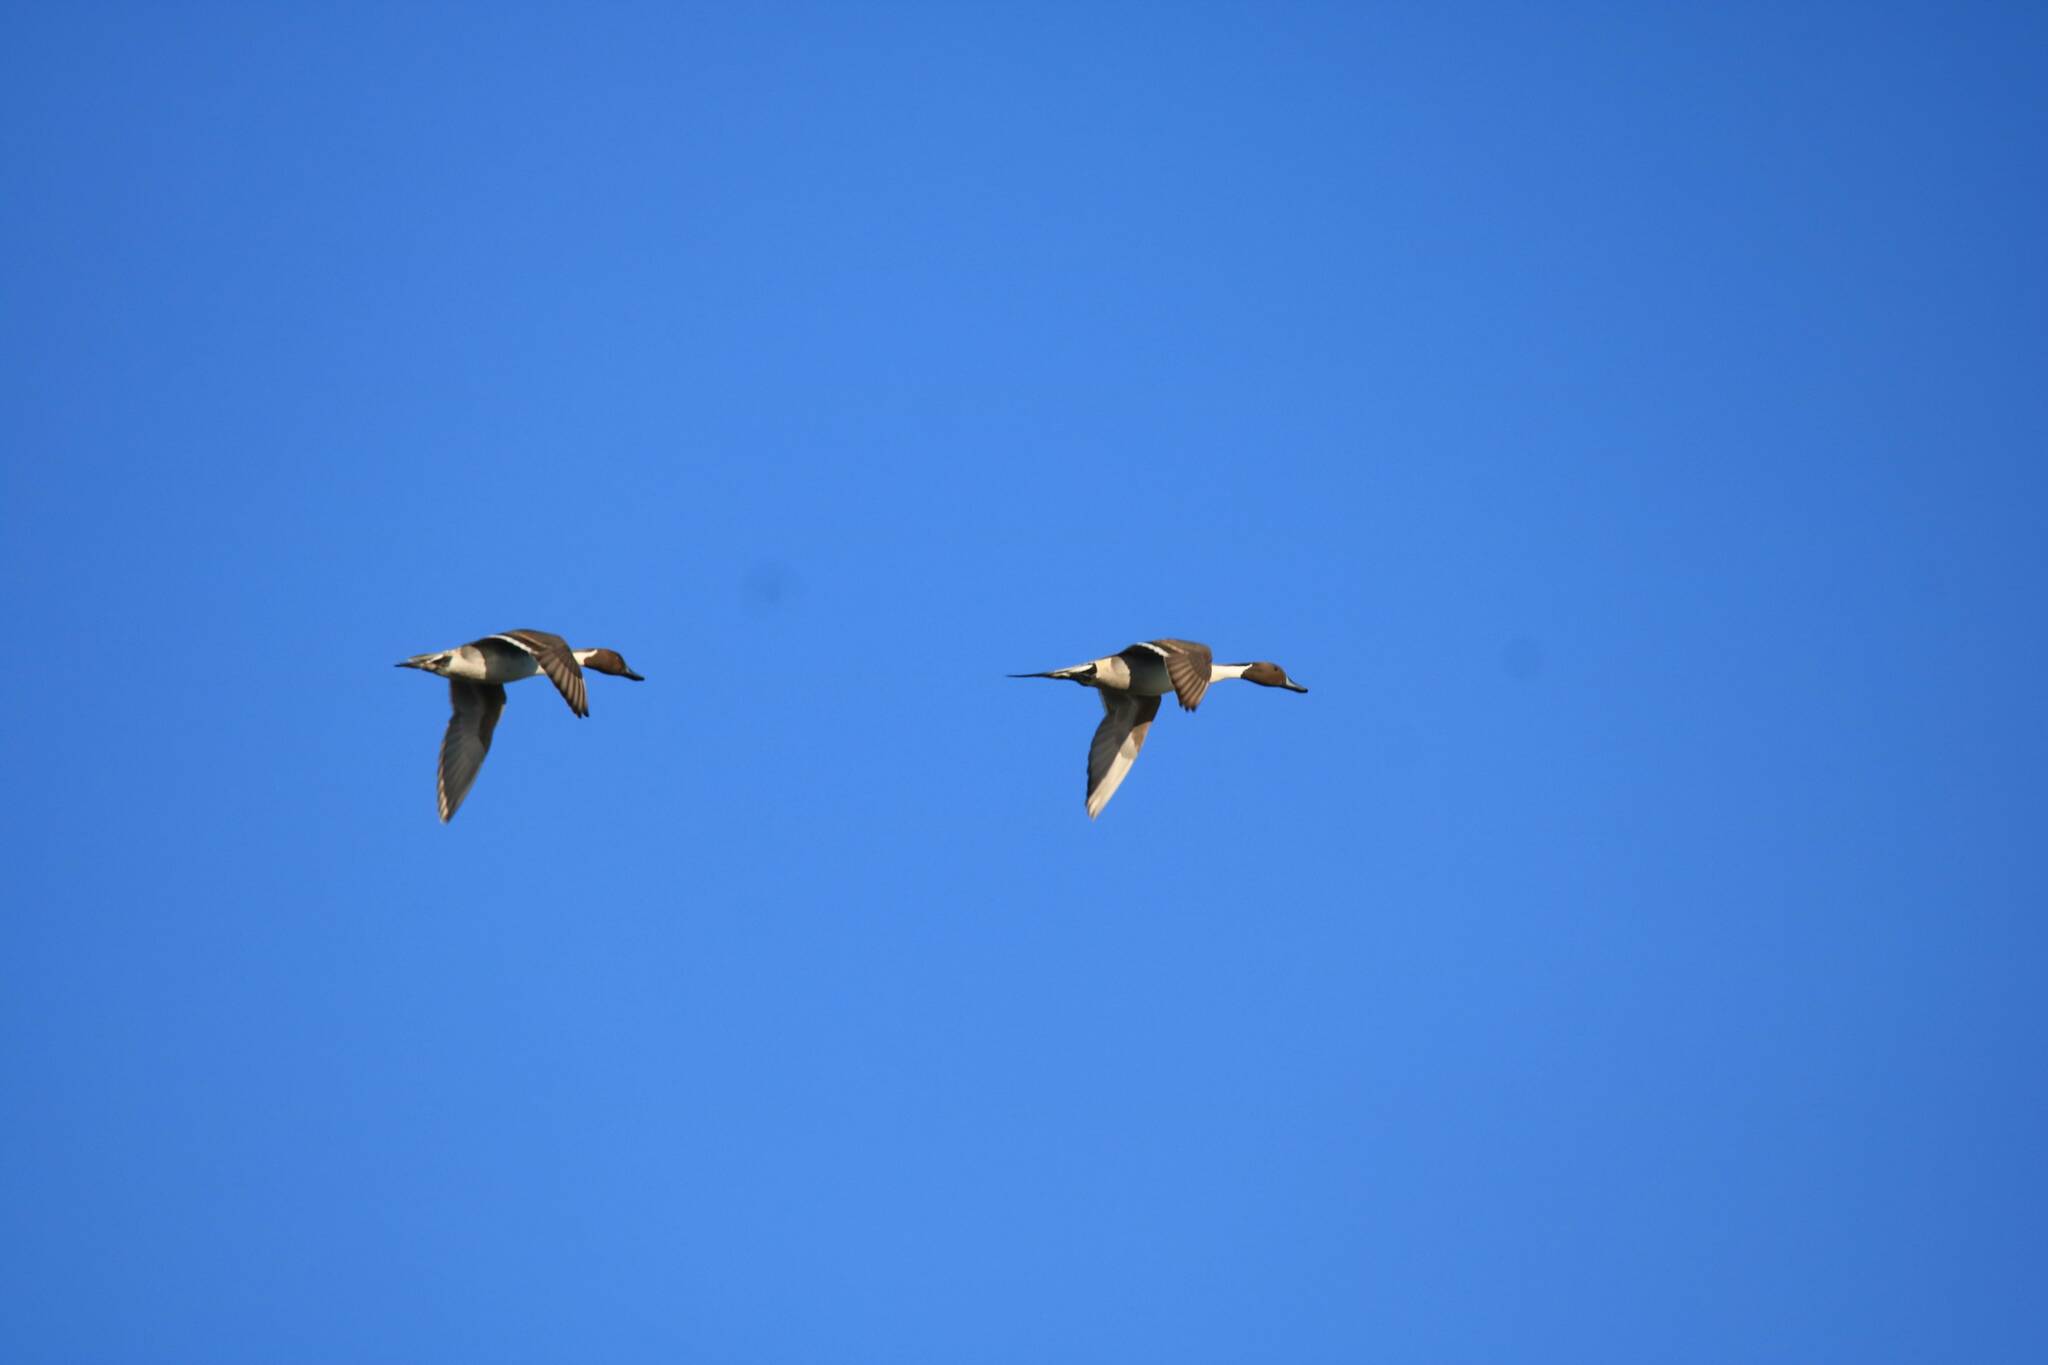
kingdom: Animalia
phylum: Chordata
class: Aves
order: Anseriformes
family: Anatidae
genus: Anas
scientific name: Anas acuta
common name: Northern pintail
